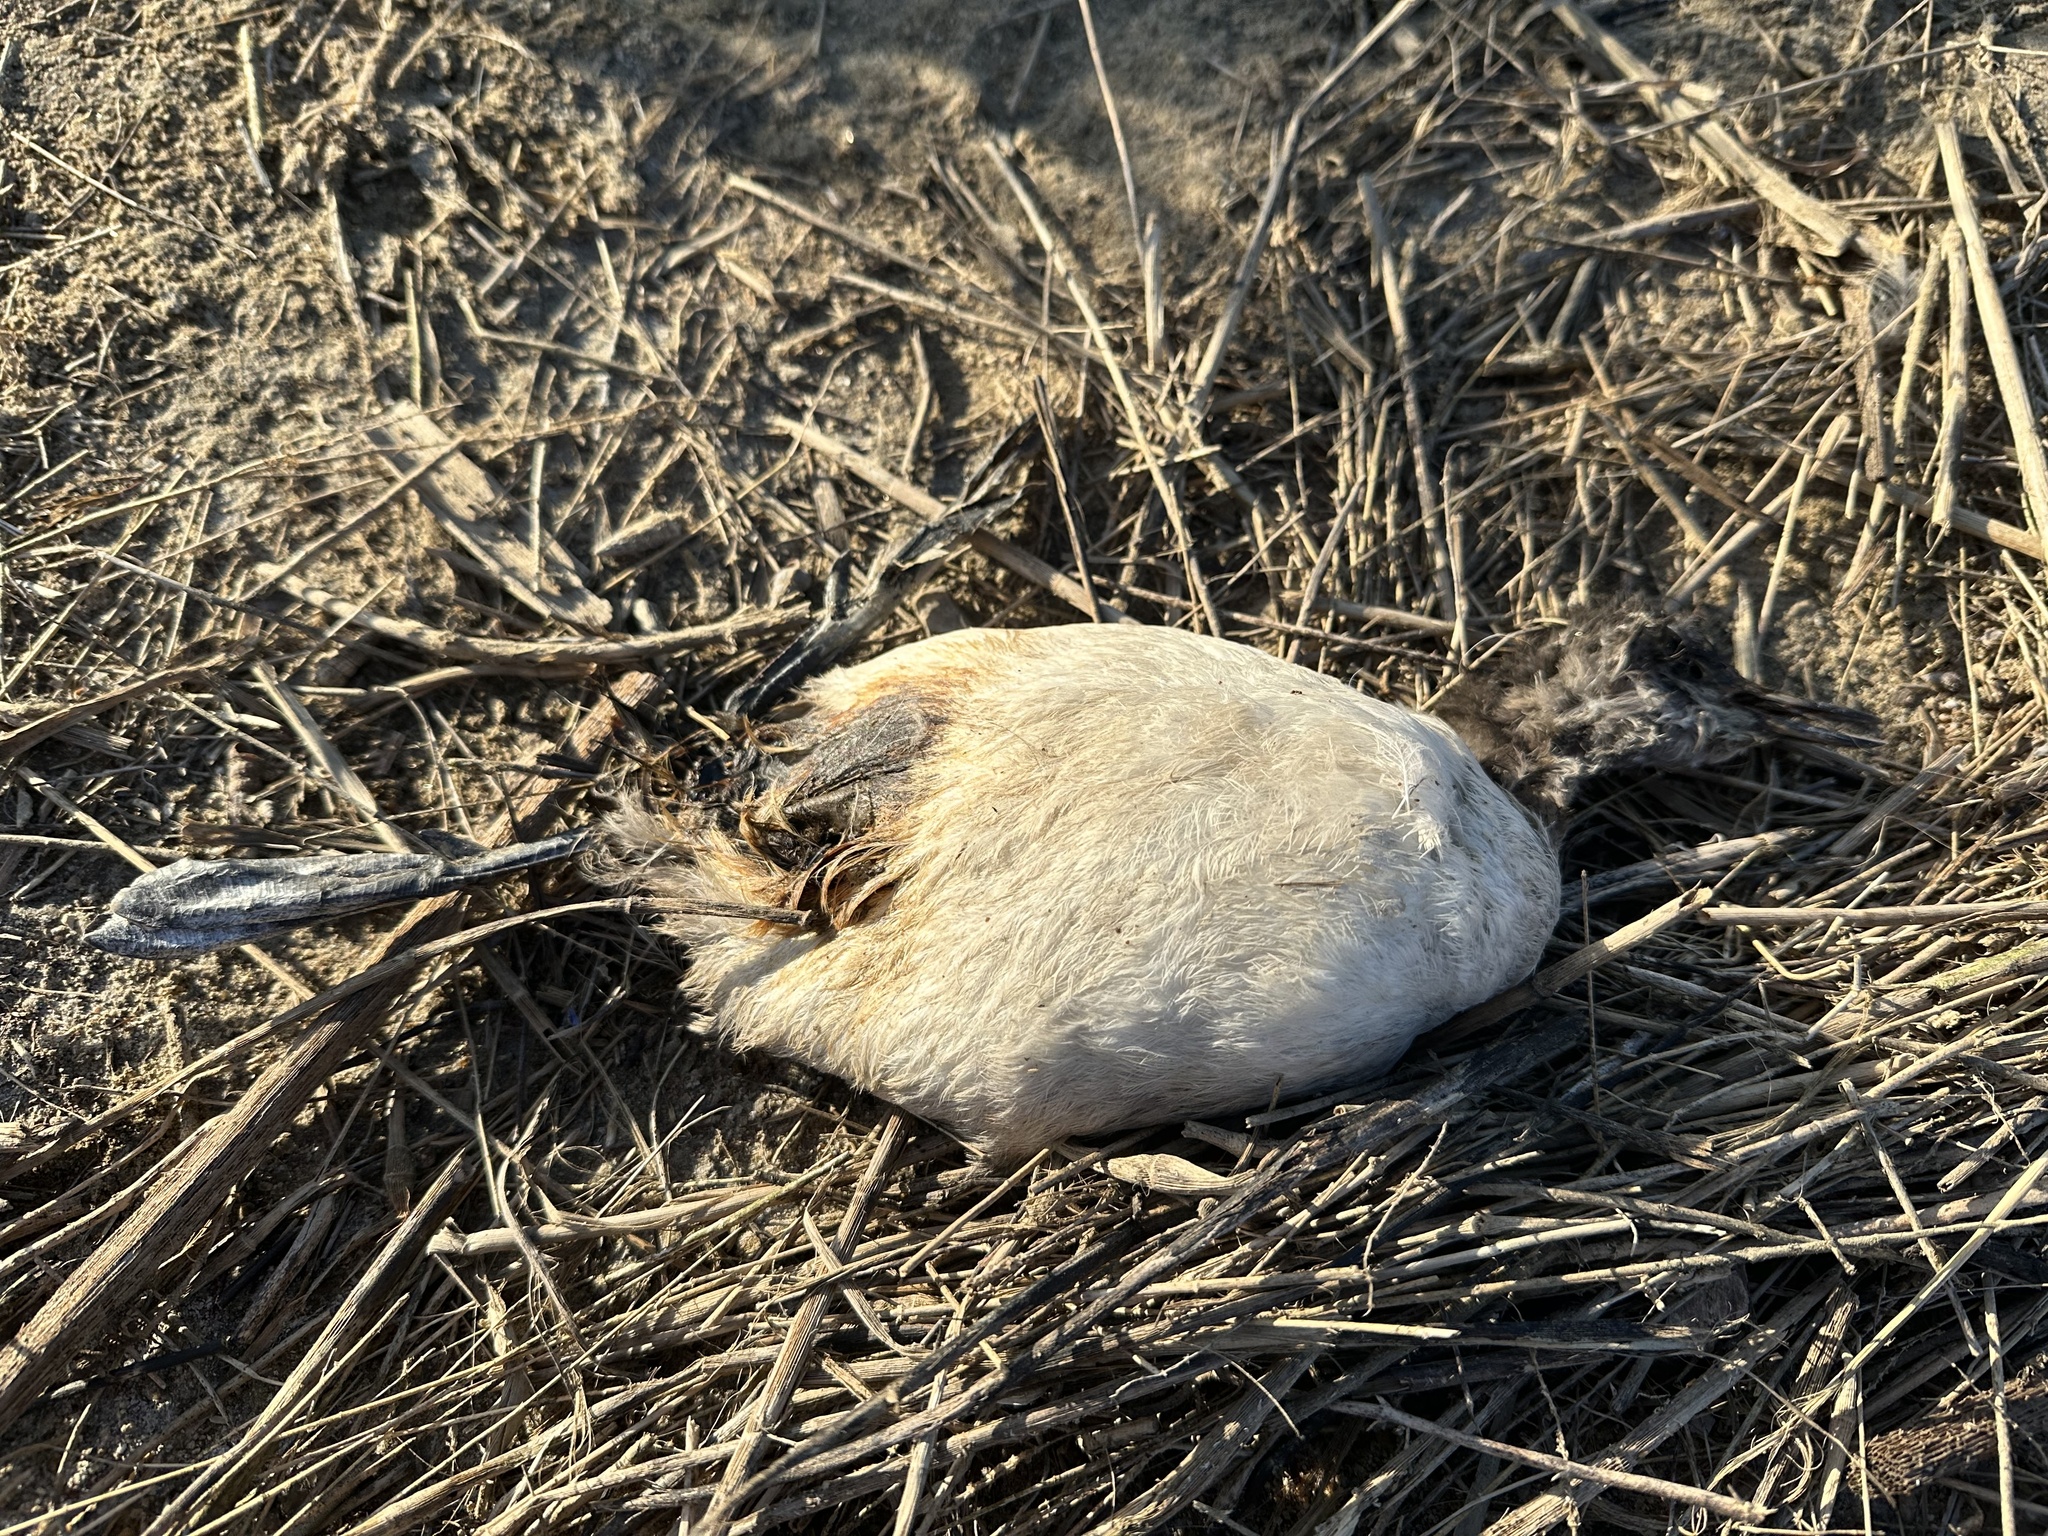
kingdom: Animalia
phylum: Chordata
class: Aves
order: Podicipediformes
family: Podicipedidae
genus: Podiceps
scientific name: Podiceps nigricollis
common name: Black-necked grebe
